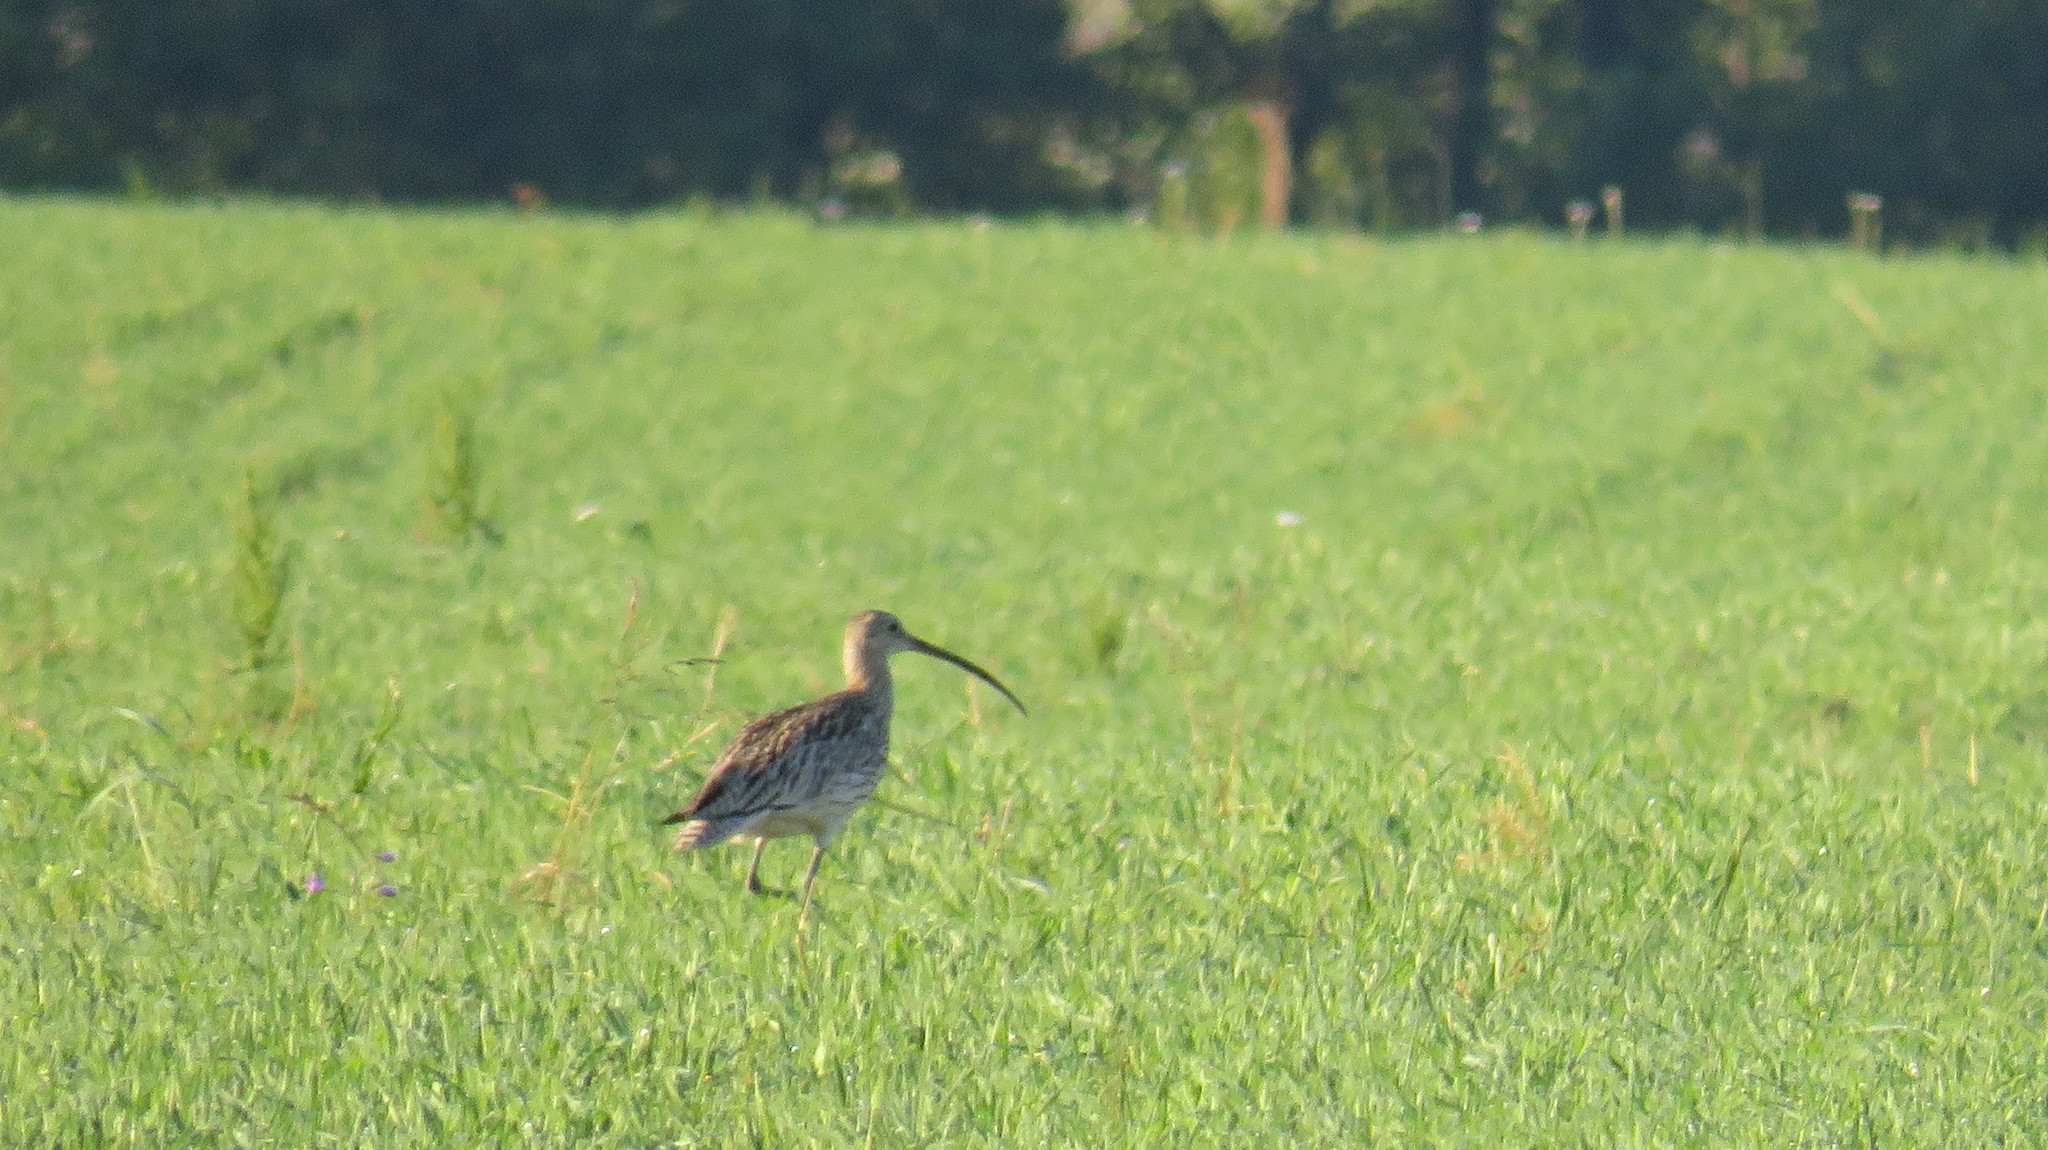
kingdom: Animalia
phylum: Chordata
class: Aves
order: Charadriiformes
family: Scolopacidae
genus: Numenius
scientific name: Numenius arquata
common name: Eurasian curlew
